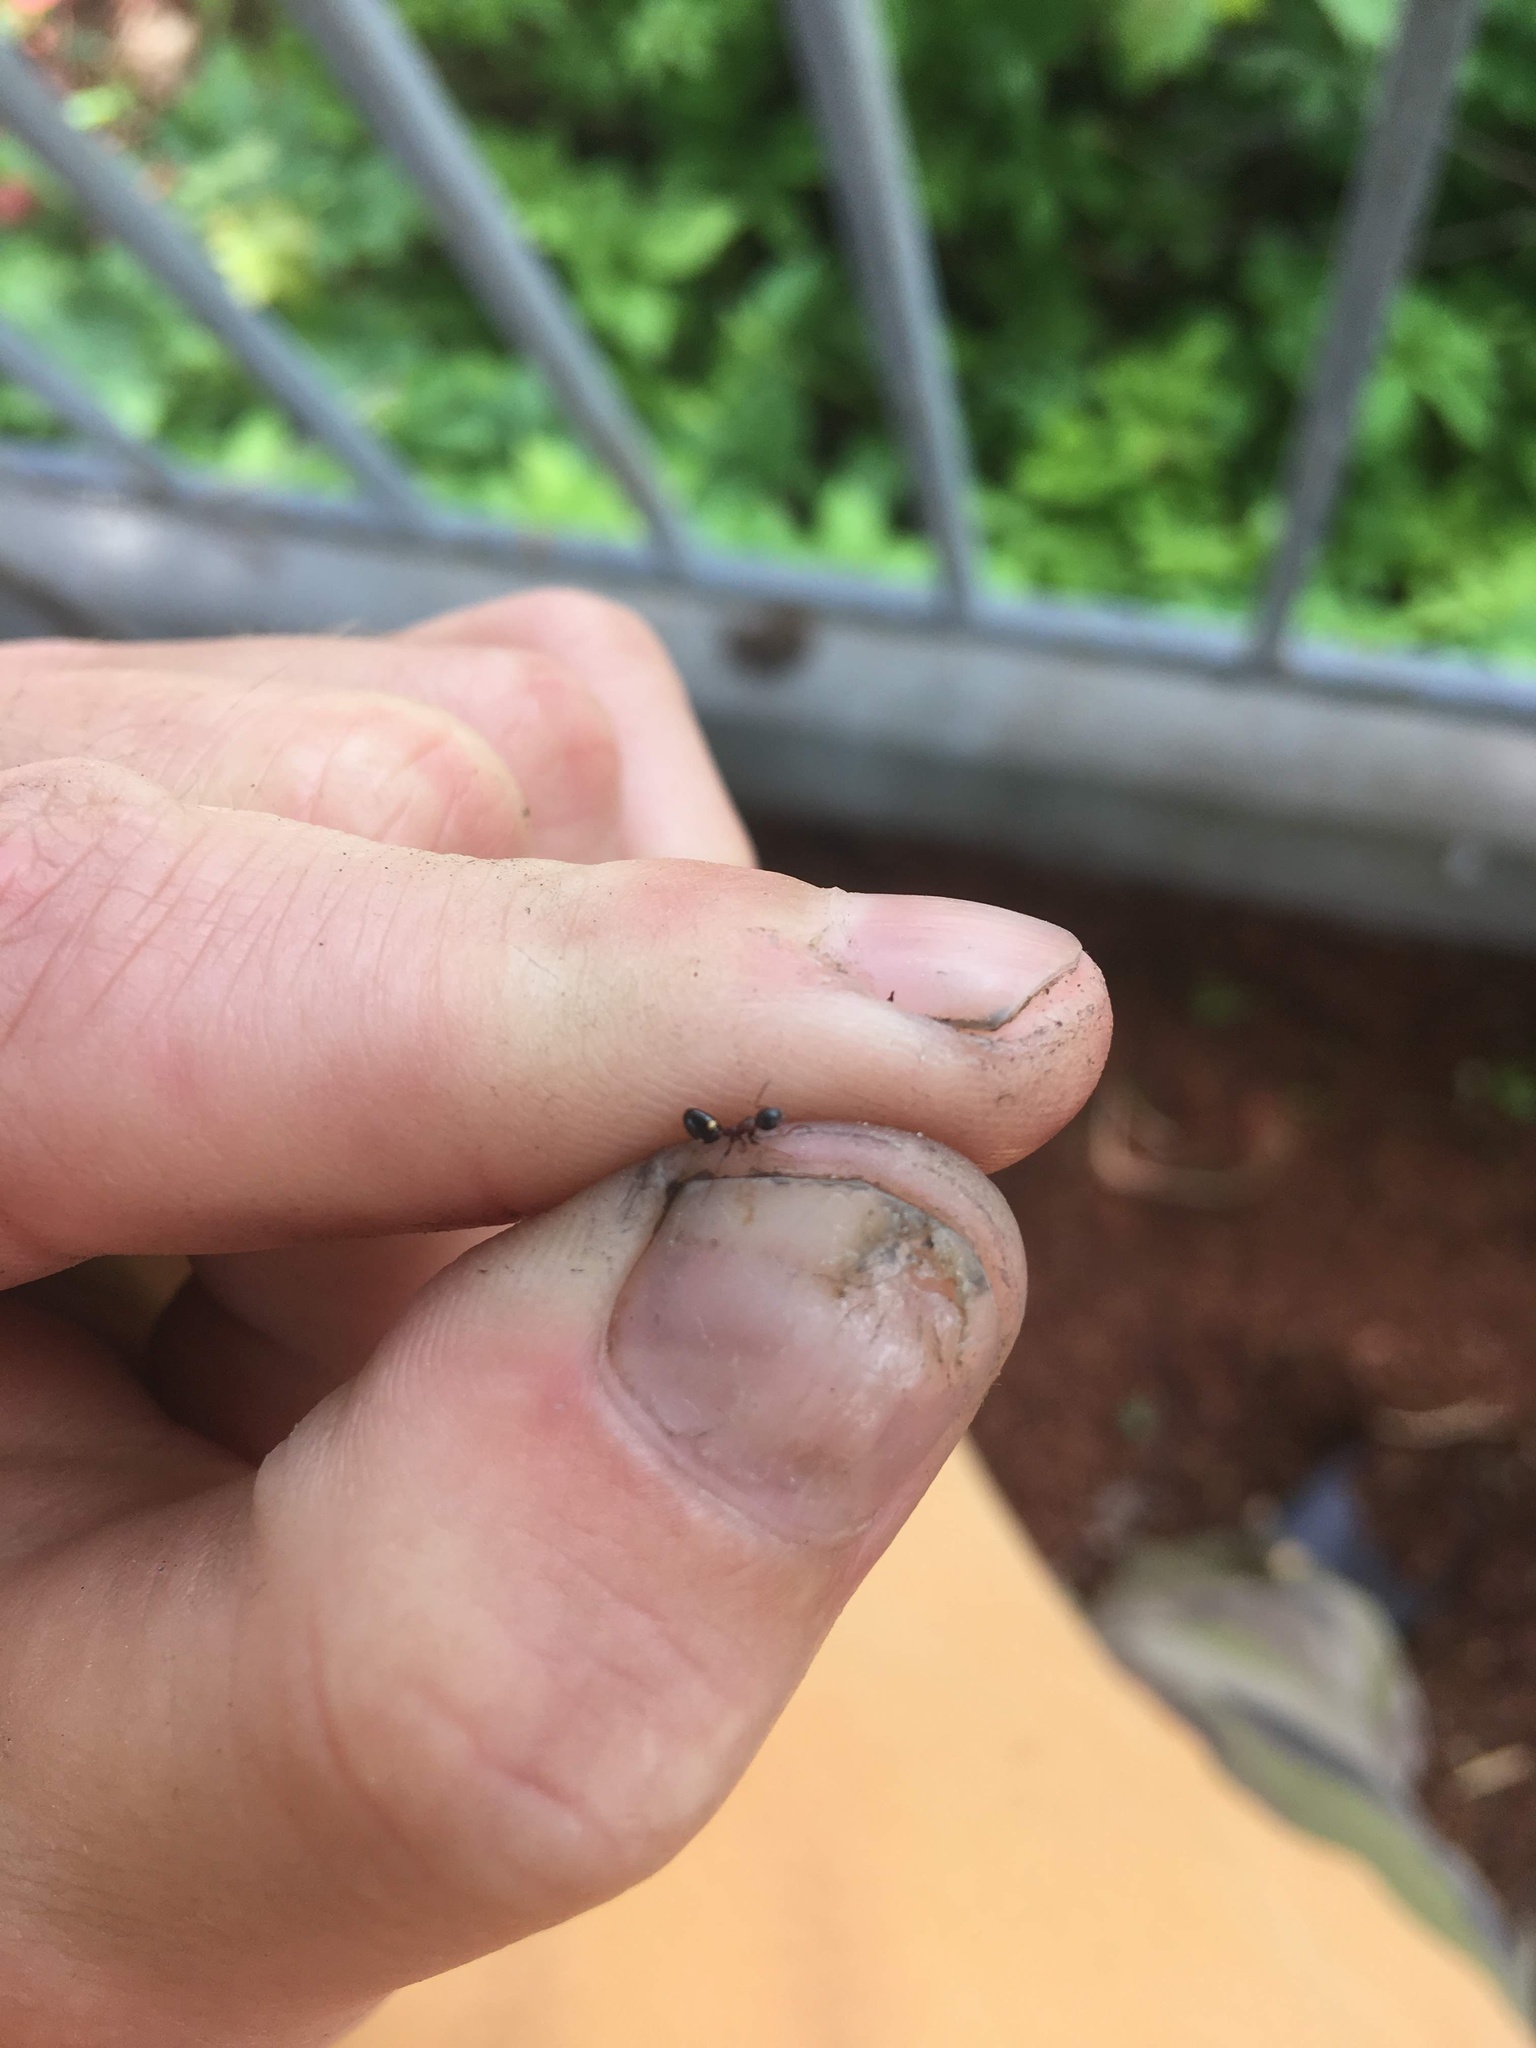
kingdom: Animalia
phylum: Arthropoda
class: Insecta
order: Hymenoptera
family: Formicidae
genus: Dolichoderus
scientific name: Dolichoderus quadripunctatus
